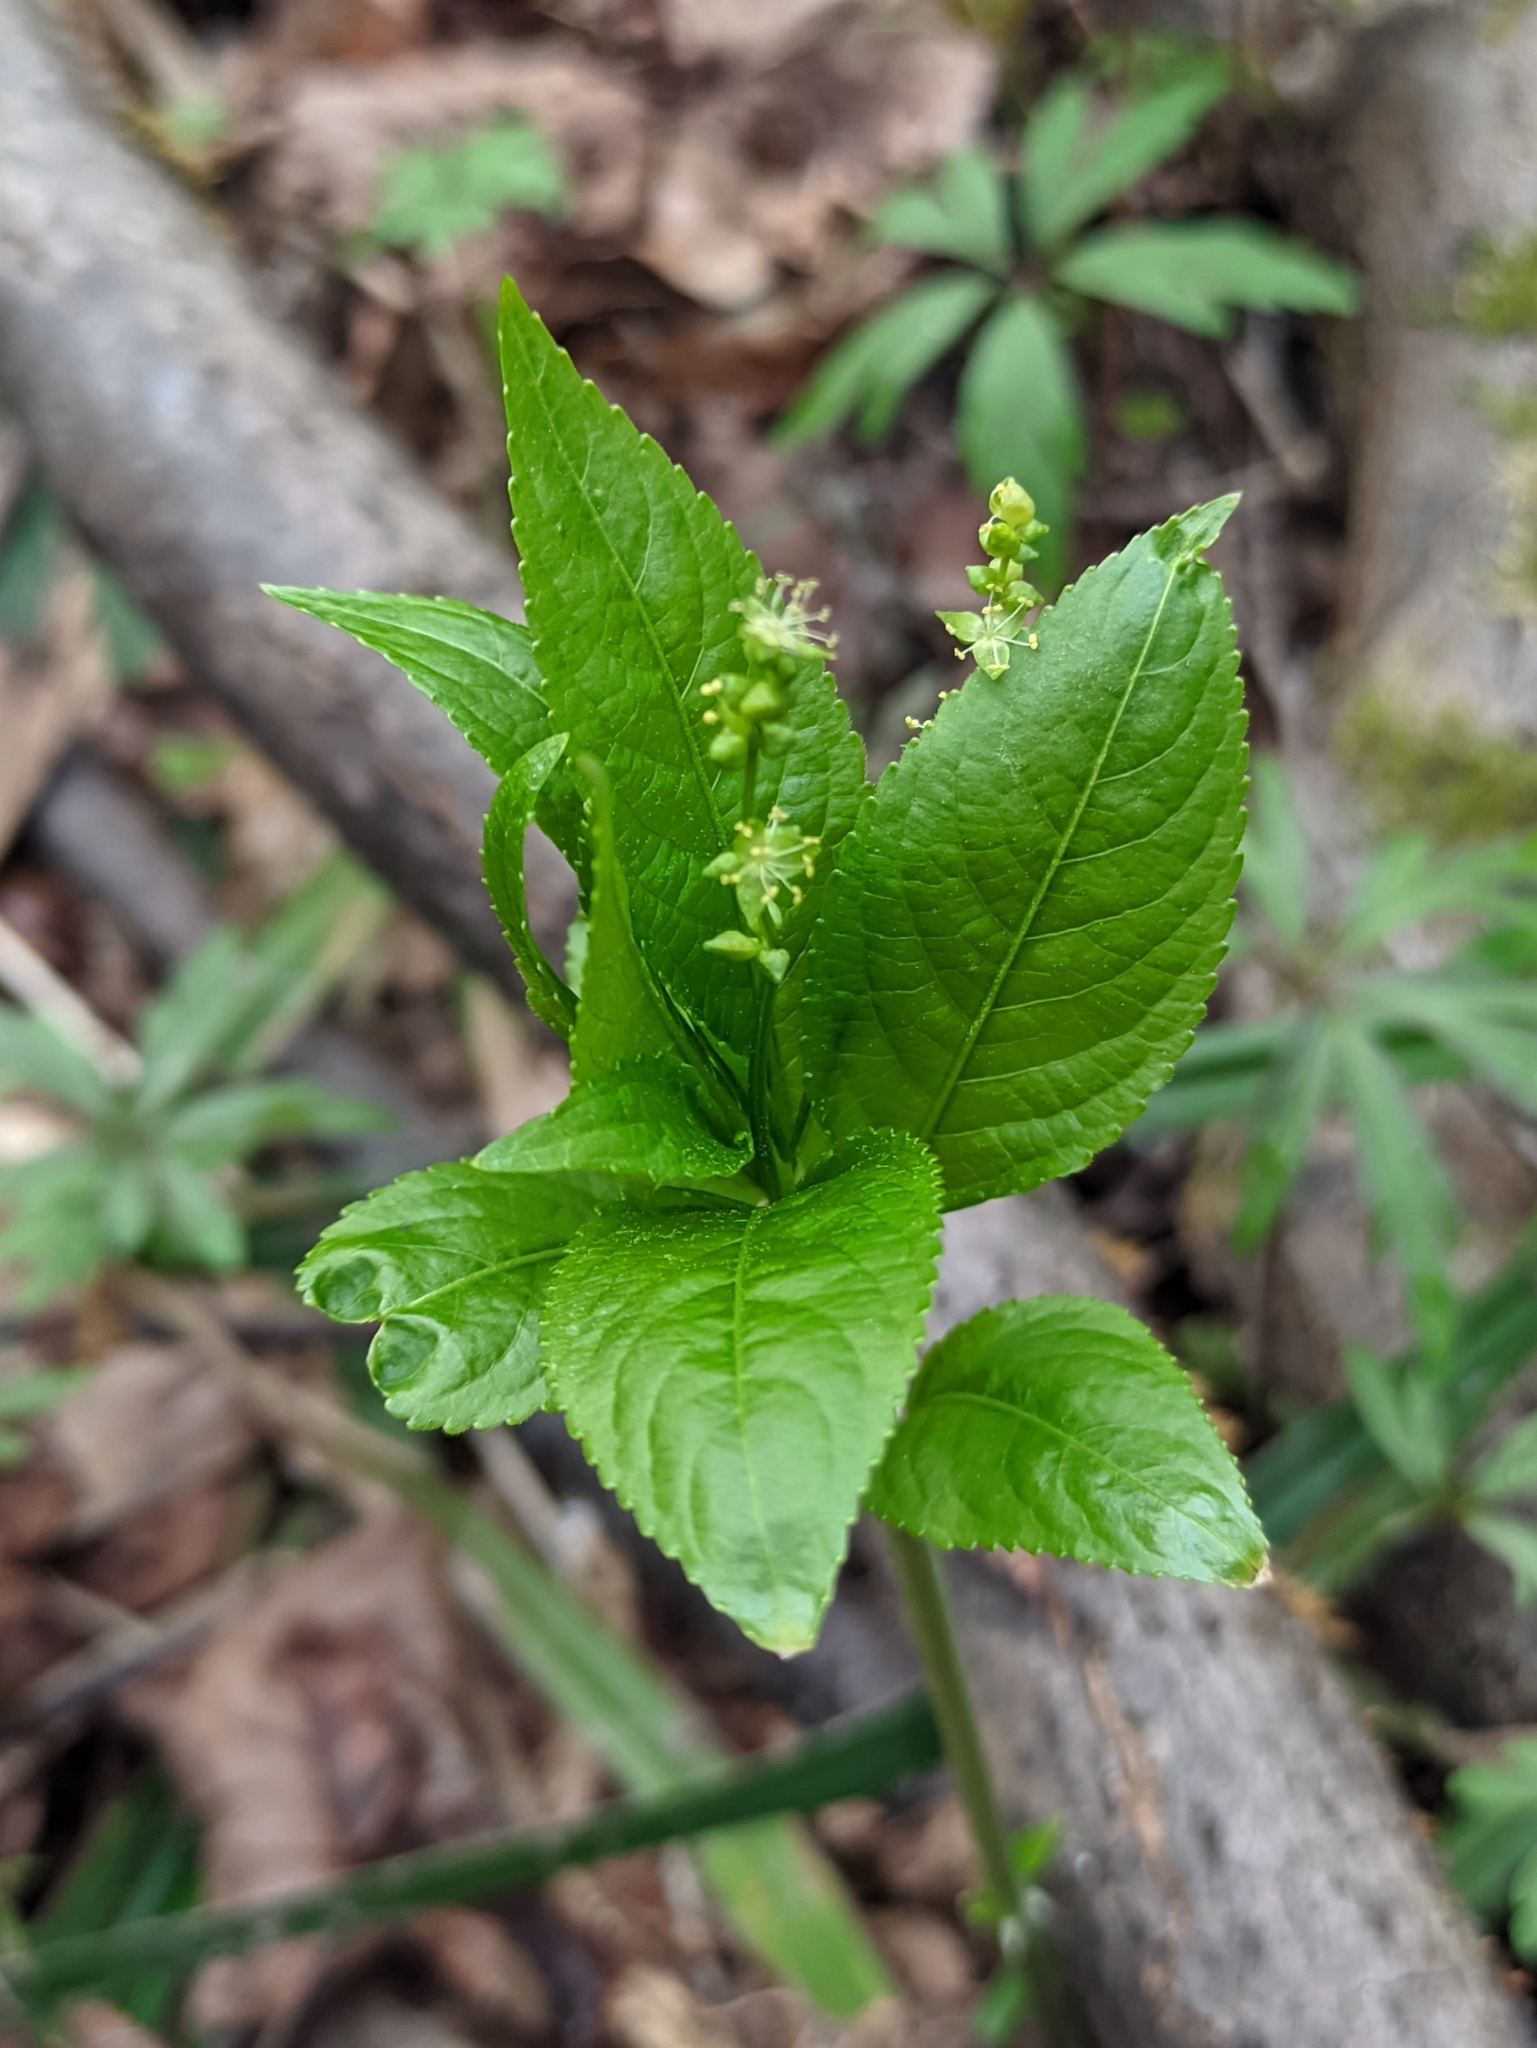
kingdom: Plantae
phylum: Tracheophyta
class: Magnoliopsida
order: Malpighiales
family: Euphorbiaceae
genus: Mercurialis
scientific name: Mercurialis perennis
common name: Dog mercury
